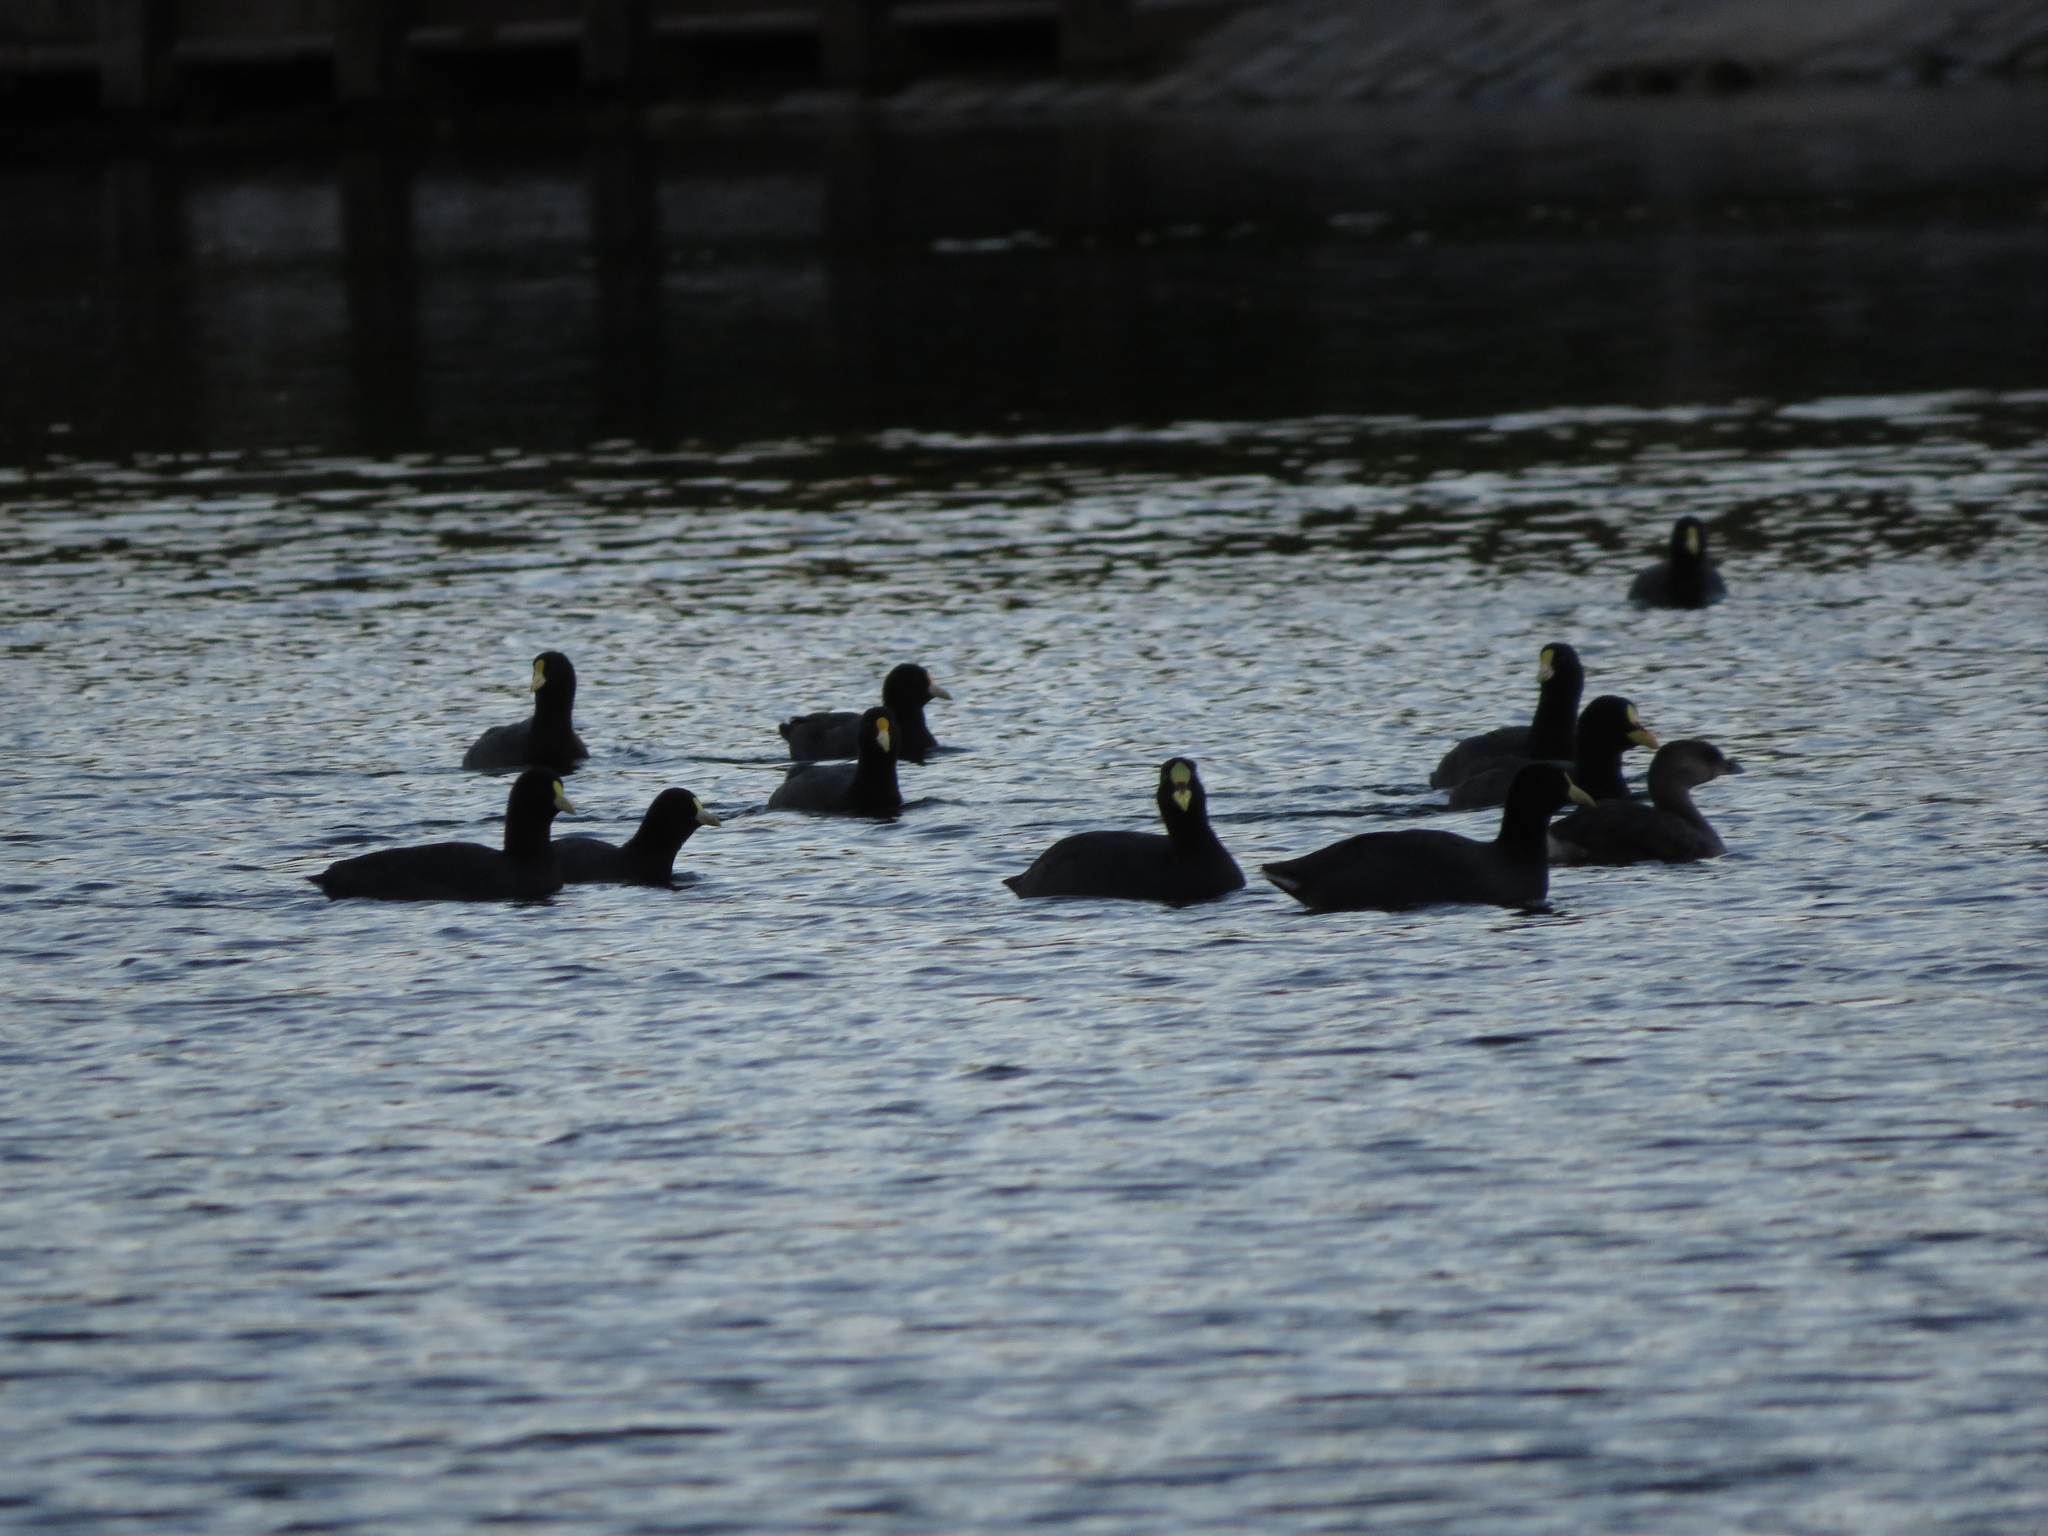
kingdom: Animalia
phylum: Chordata
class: Aves
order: Gruiformes
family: Rallidae
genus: Fulica
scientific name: Fulica armillata
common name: Red-gartered coot
